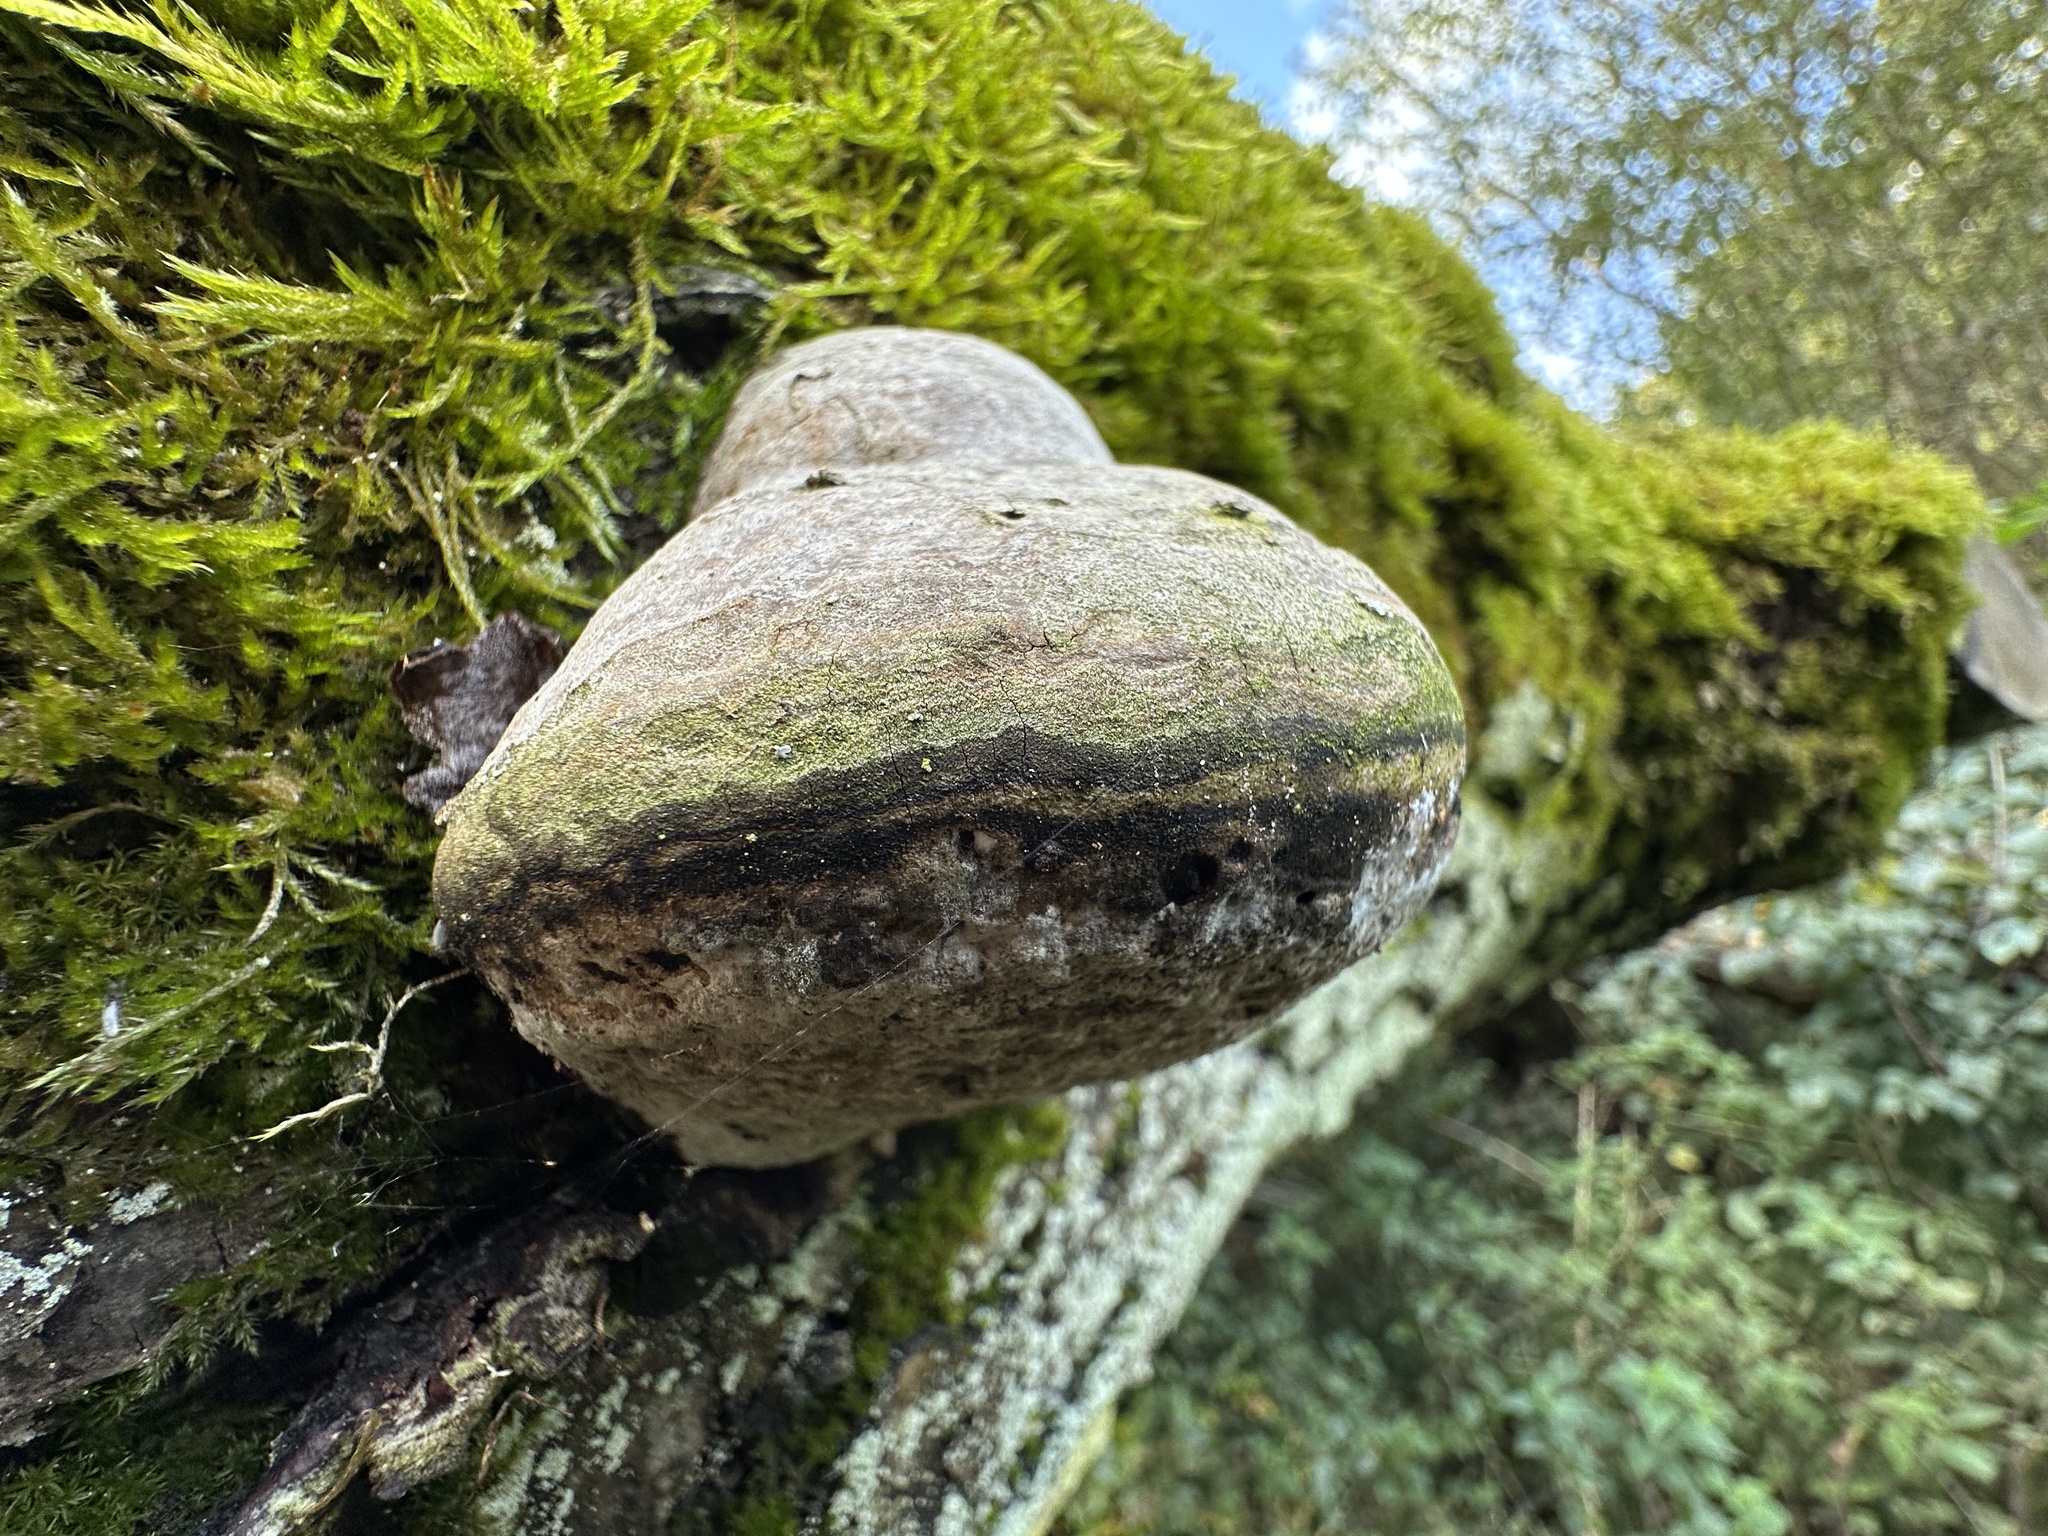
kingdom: Fungi
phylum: Basidiomycota
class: Agaricomycetes
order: Polyporales
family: Polyporaceae
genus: Fomes
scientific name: Fomes fomentarius
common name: Hoof fungus
